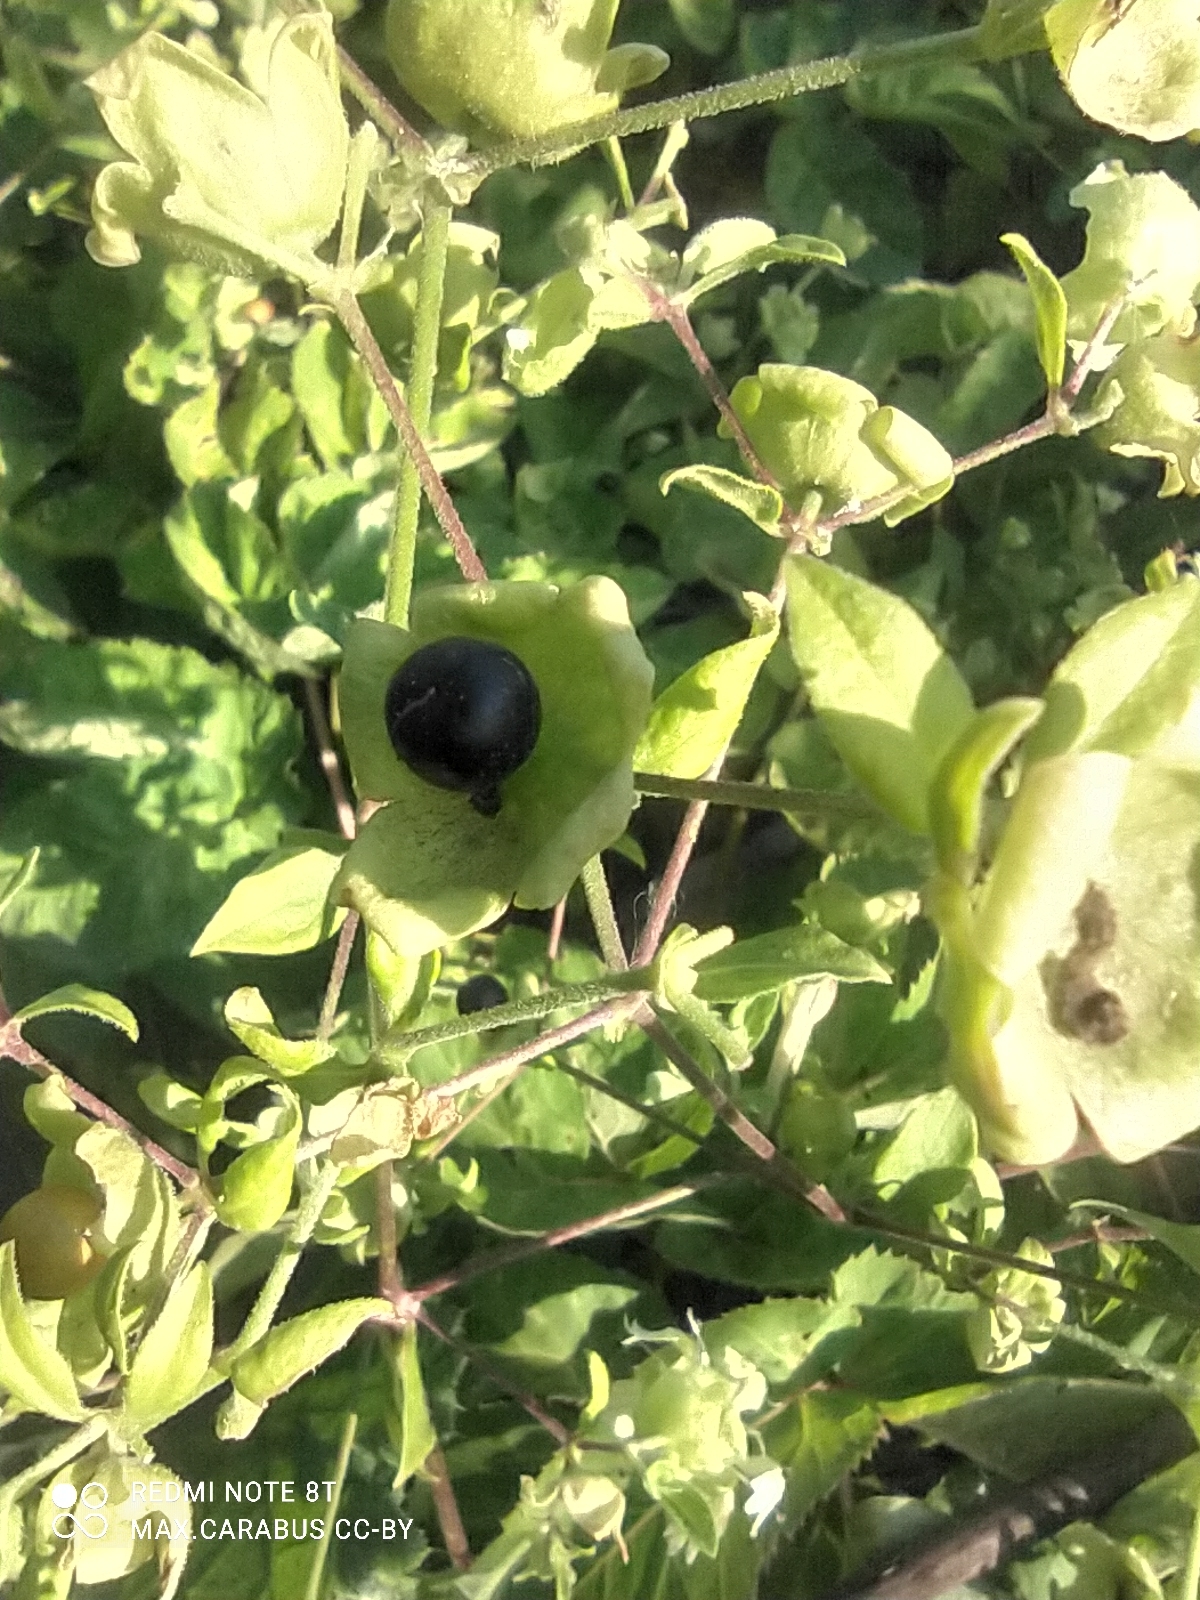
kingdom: Plantae
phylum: Tracheophyta
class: Magnoliopsida
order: Caryophyllales
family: Caryophyllaceae
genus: Silene
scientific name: Silene baccifera
